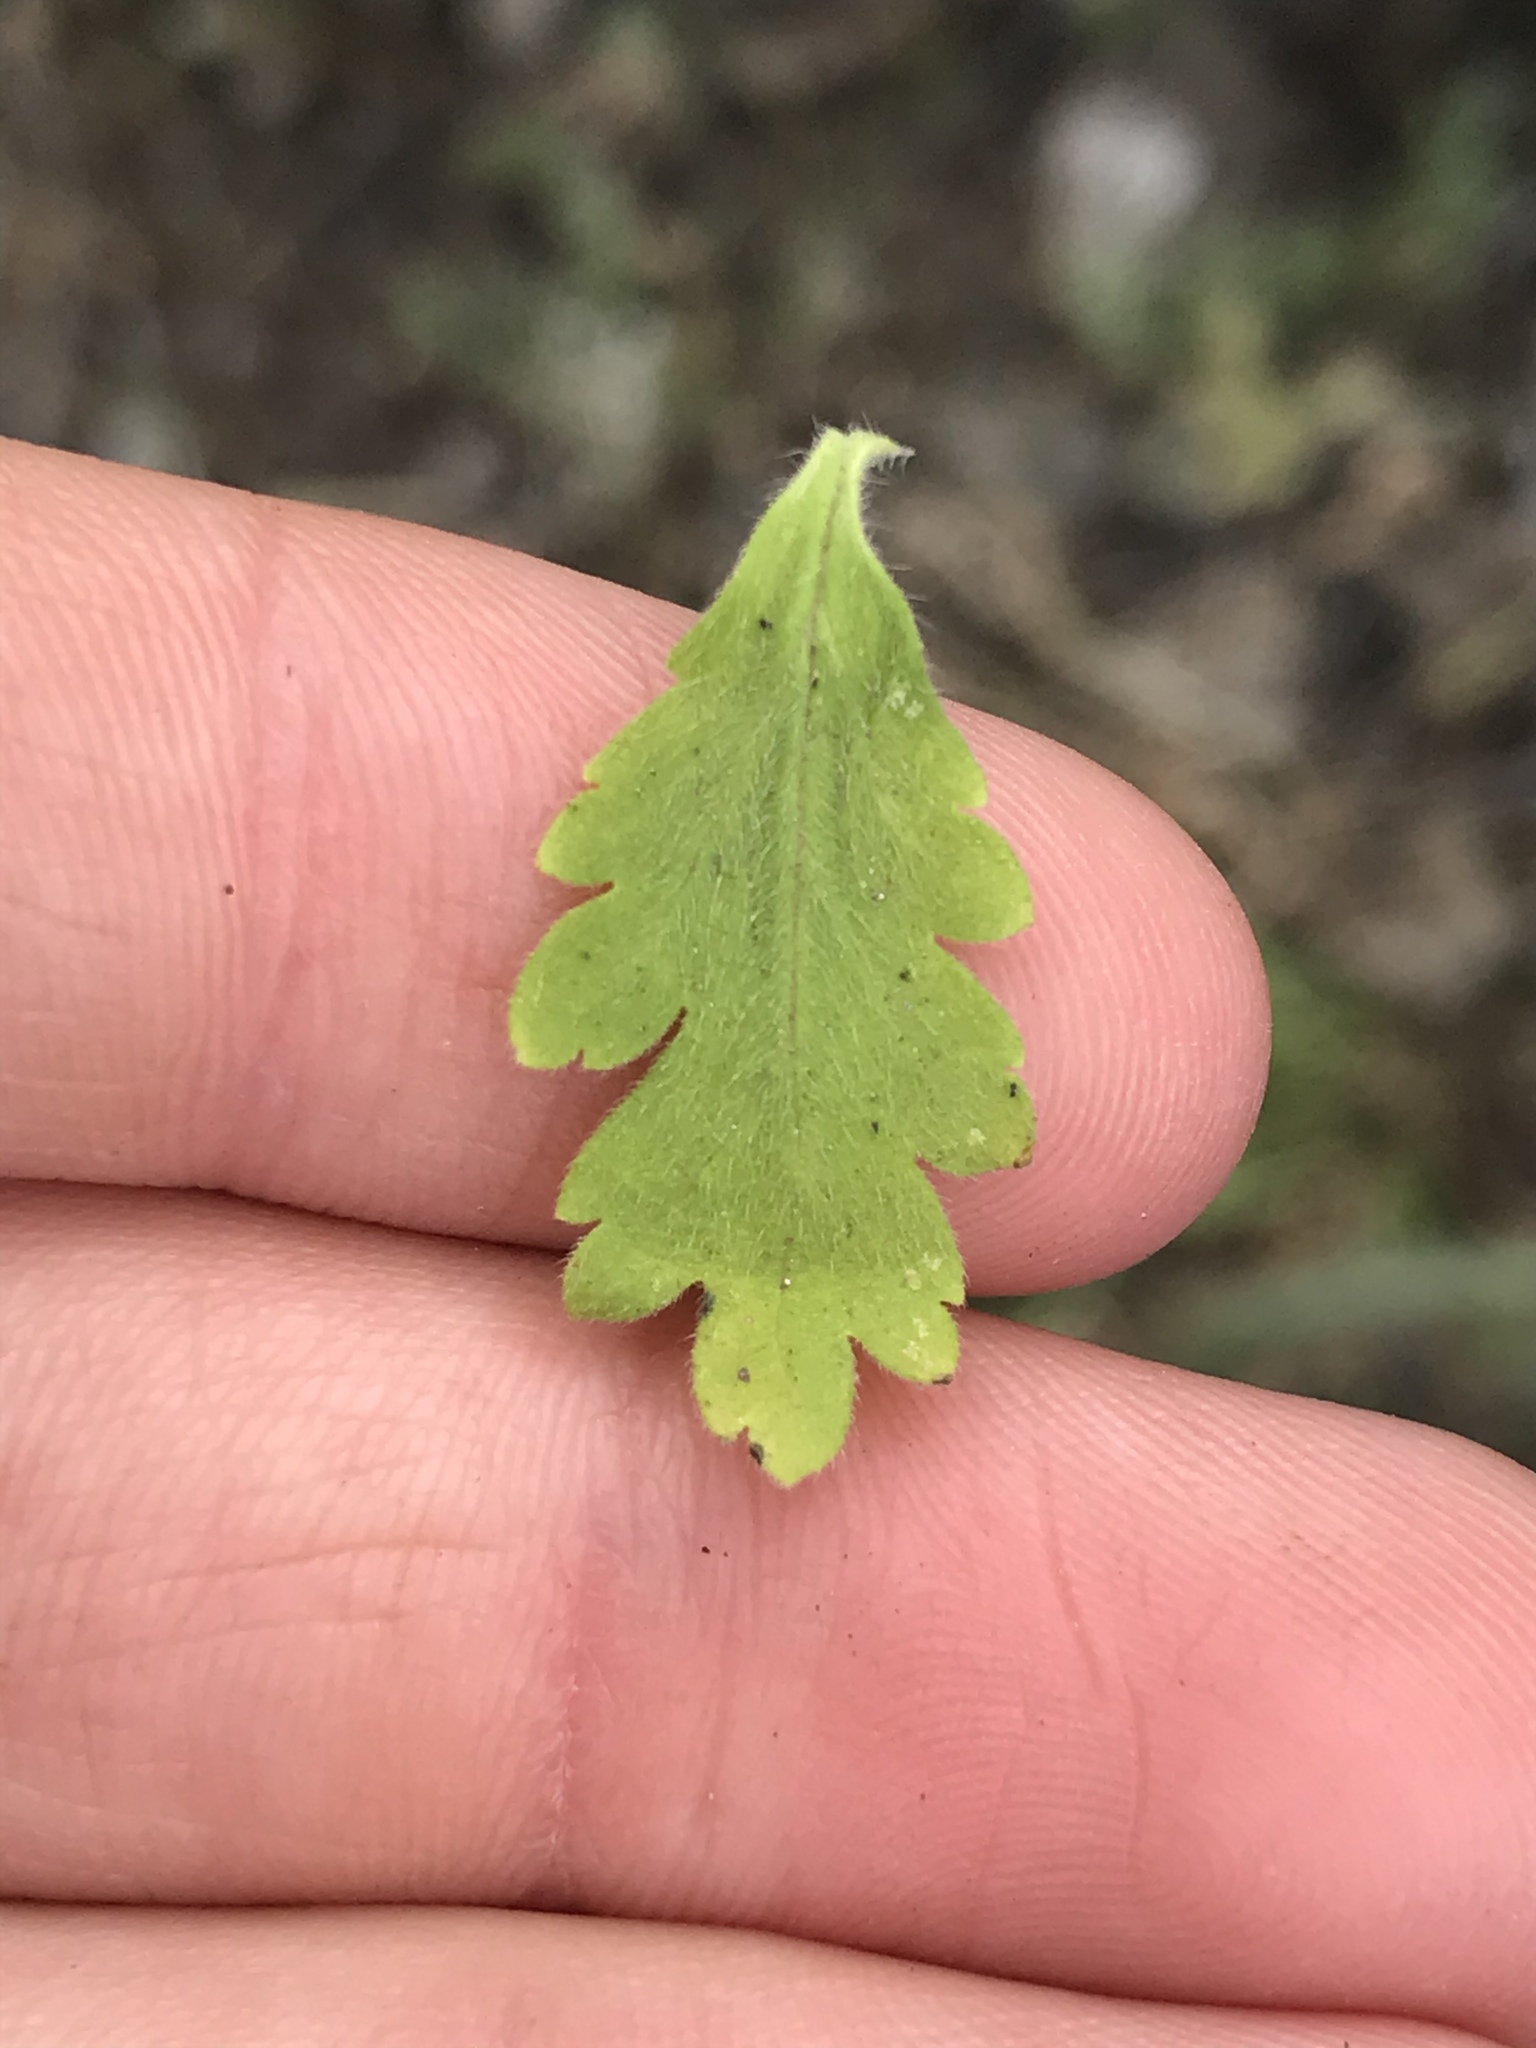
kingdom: Plantae
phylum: Tracheophyta
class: Magnoliopsida
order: Boraginales
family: Hydrophyllaceae
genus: Phacelia
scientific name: Phacelia congesta
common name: Blue curls
